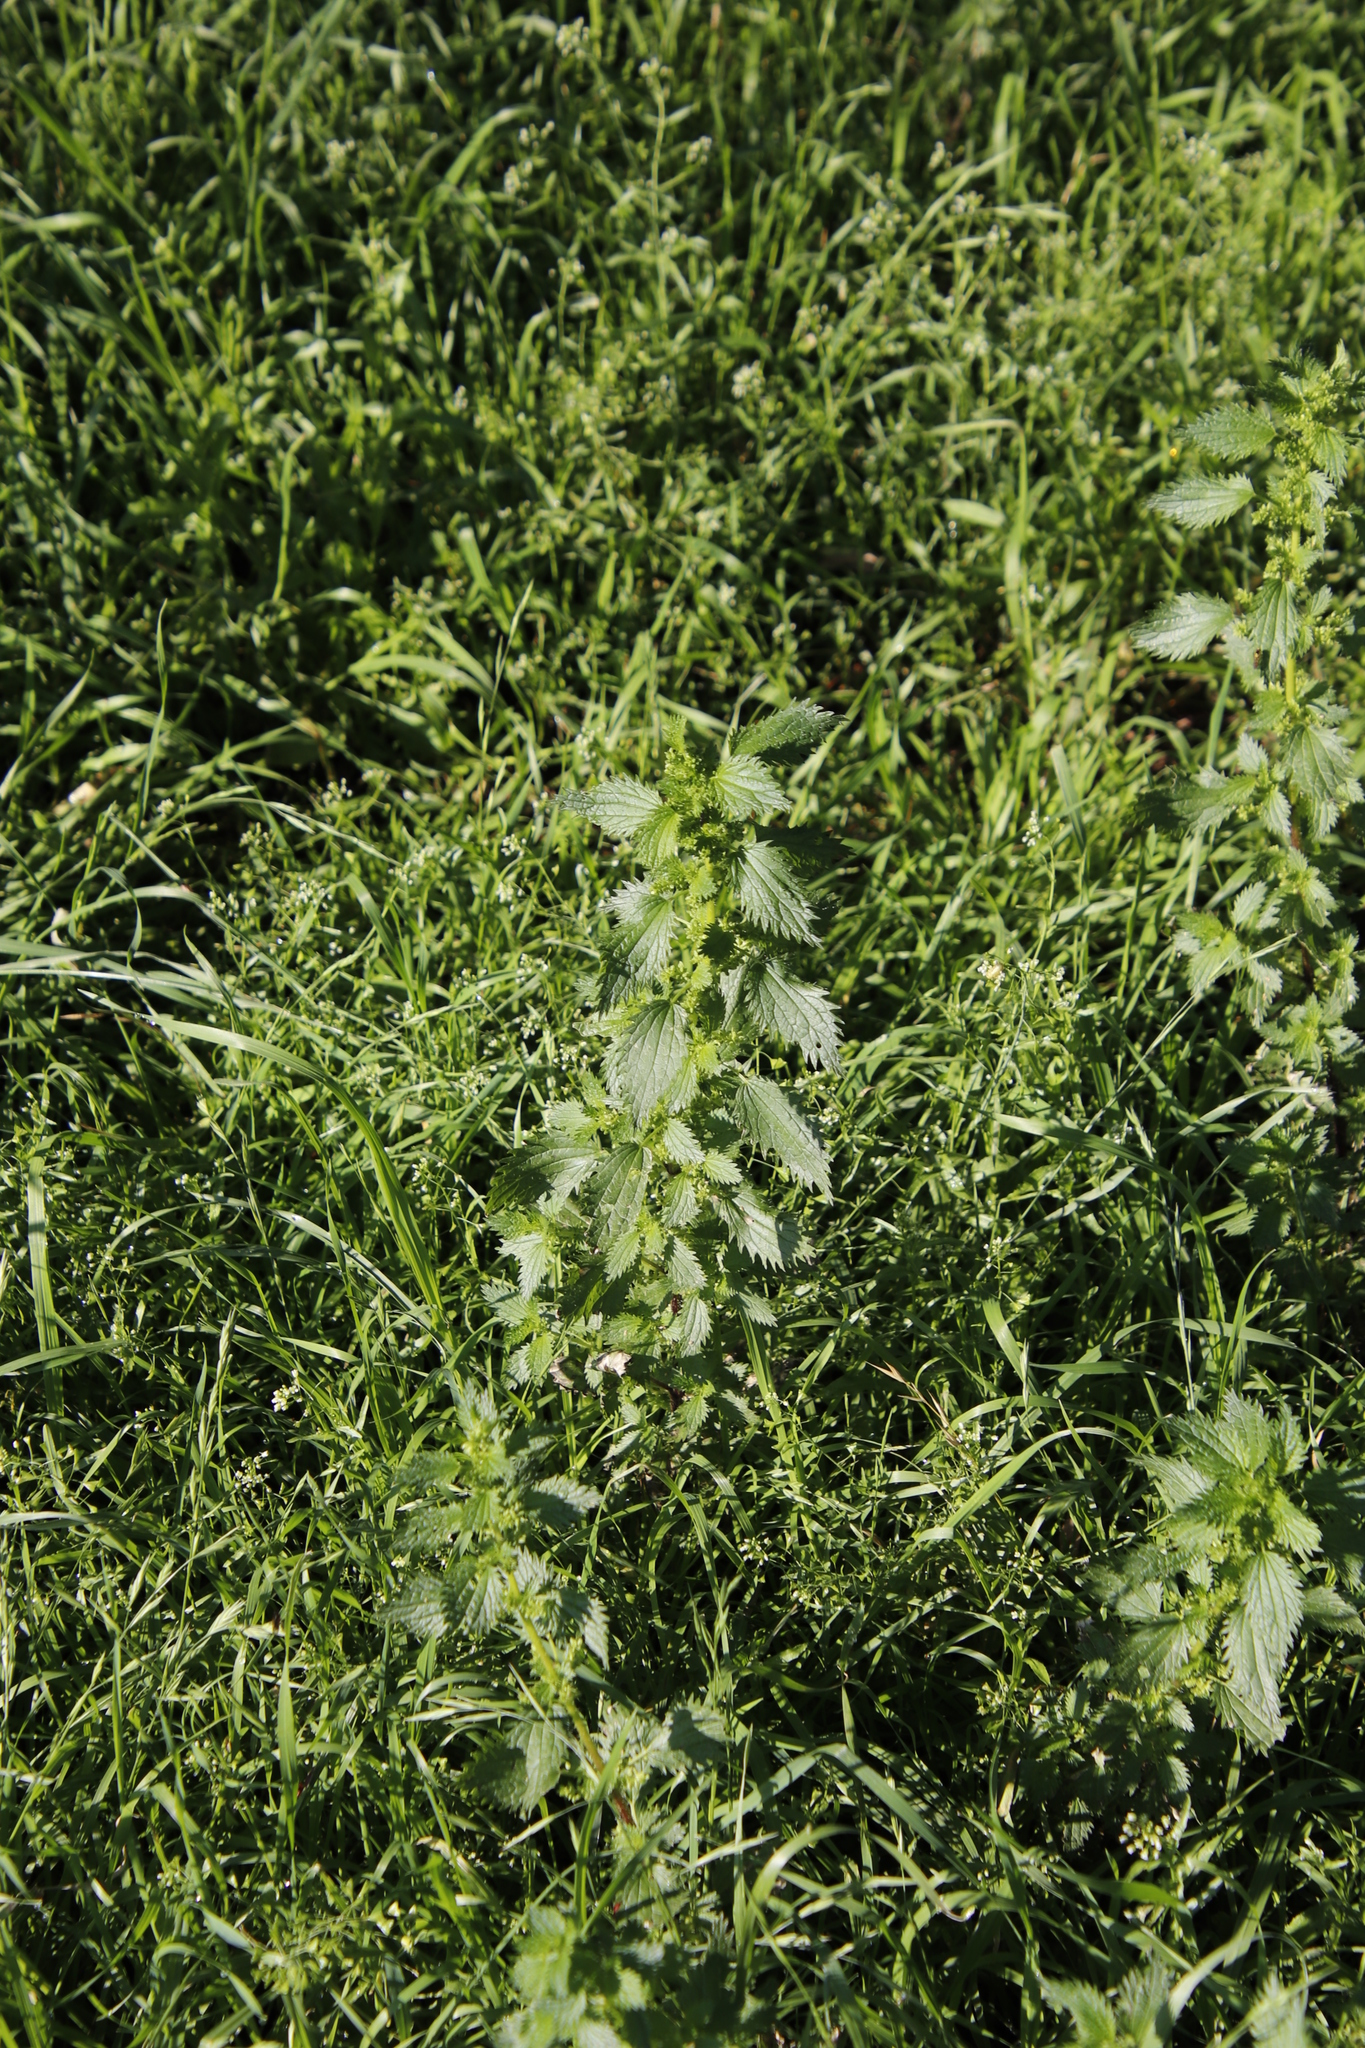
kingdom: Plantae
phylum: Tracheophyta
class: Magnoliopsida
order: Rosales
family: Urticaceae
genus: Urtica
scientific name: Urtica urens
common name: Dwarf nettle
